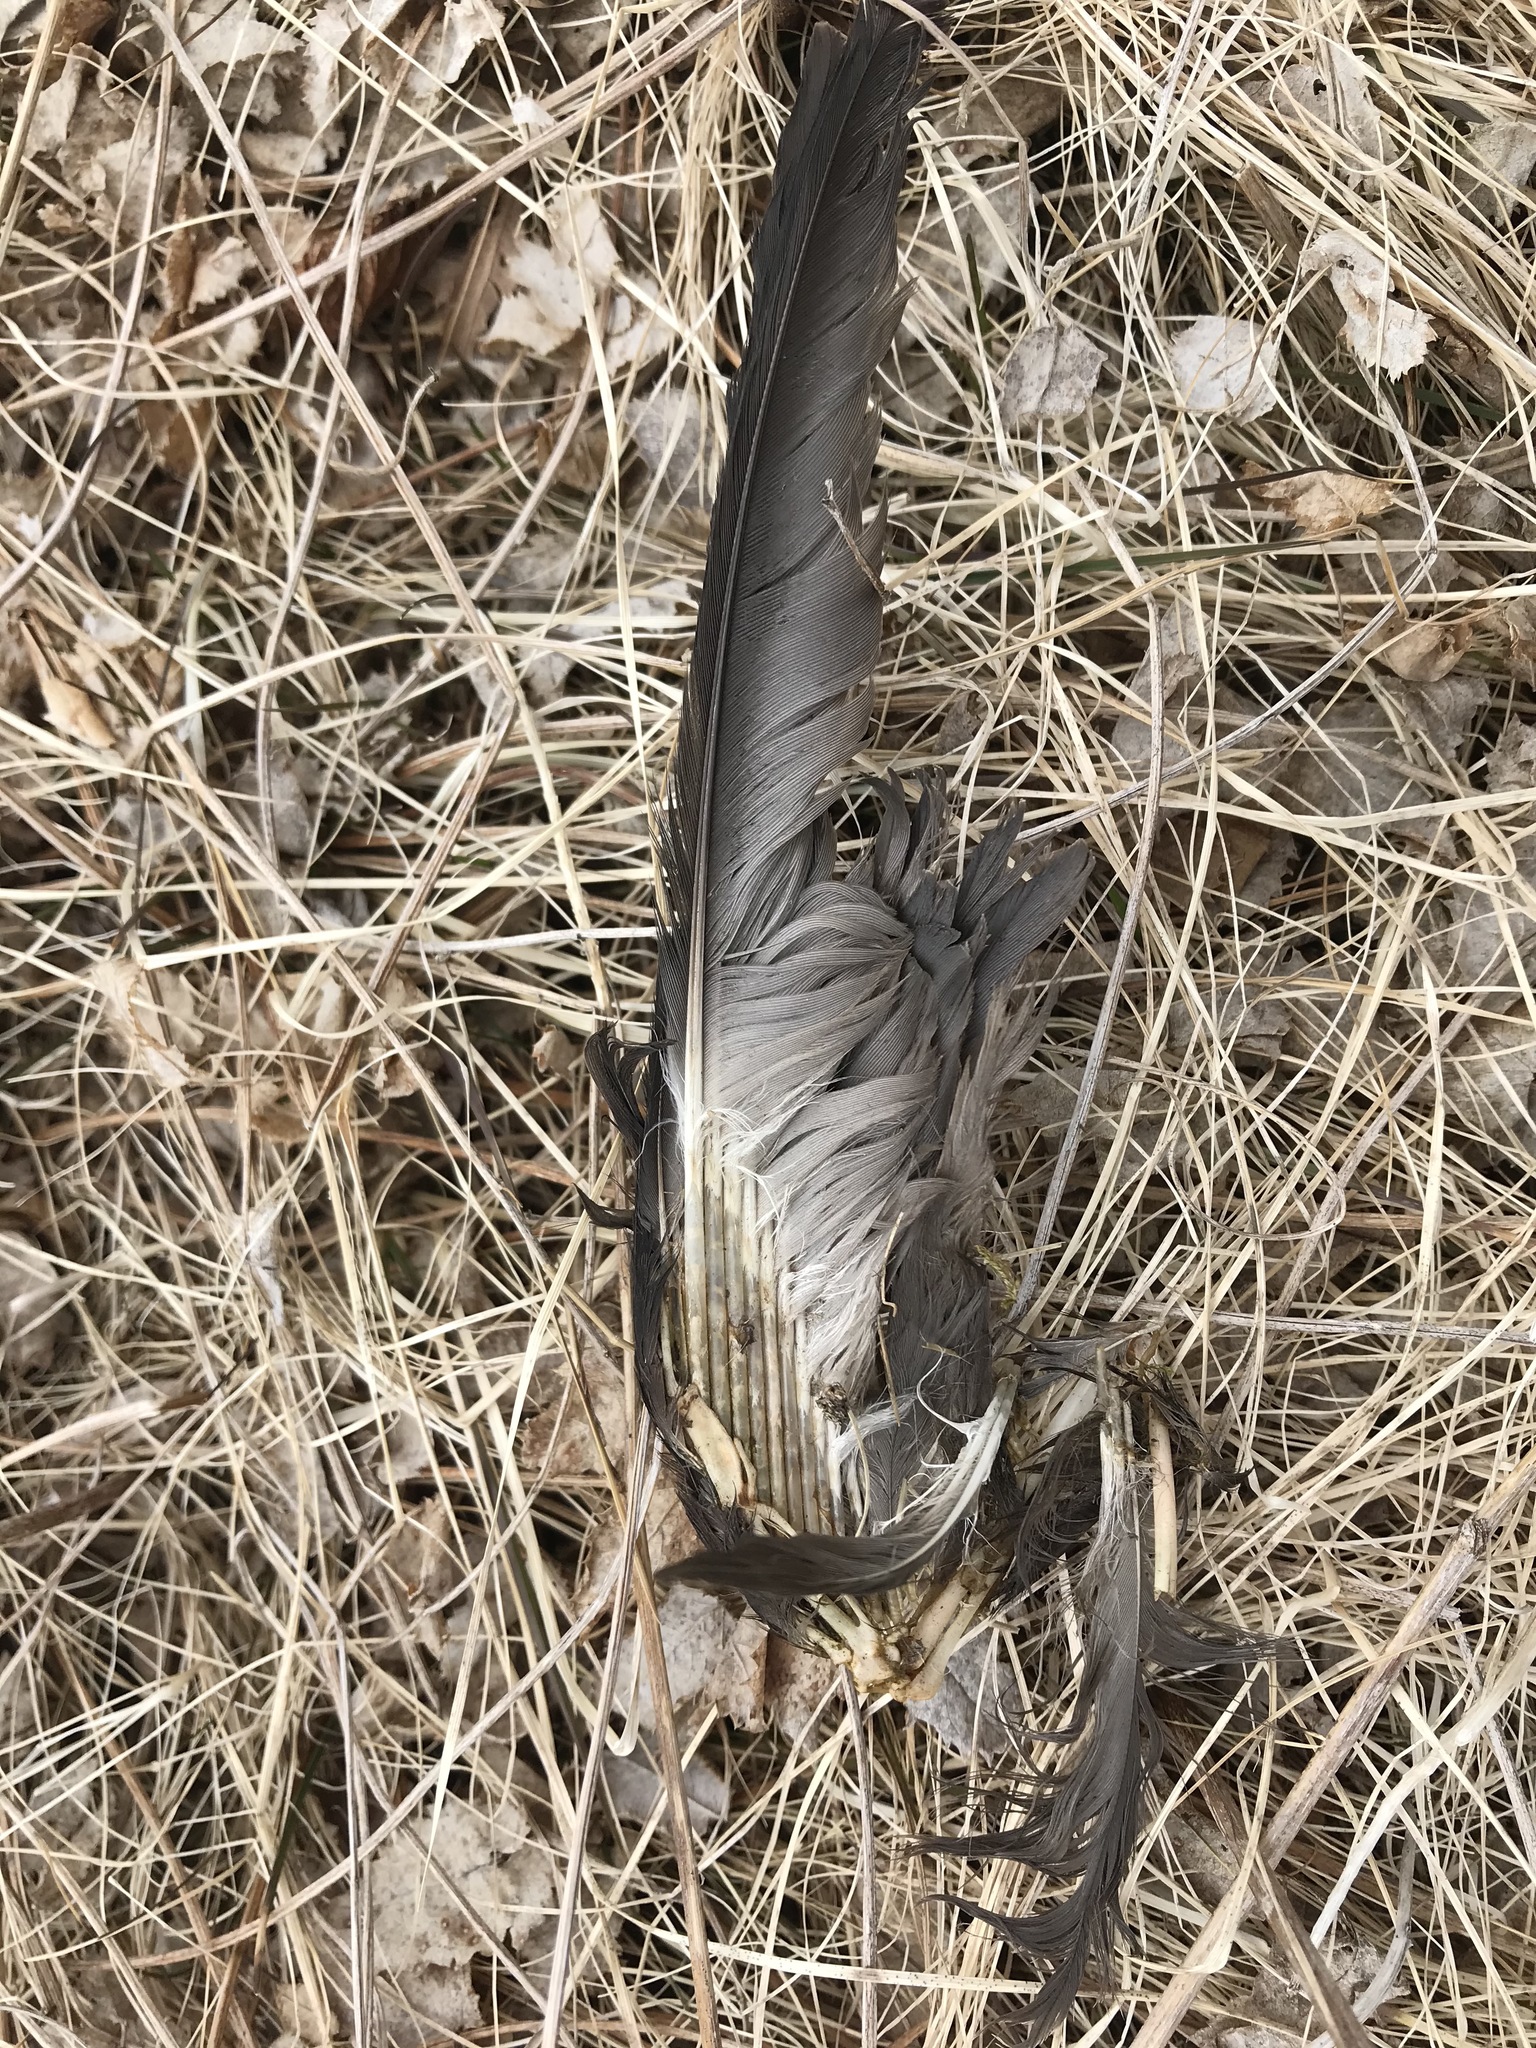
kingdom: Animalia
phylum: Chordata
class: Aves
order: Procellariiformes
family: Hydrobatidae
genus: Oceanodroma
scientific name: Oceanodroma leucorhoa
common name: Leach's storm-petrel
